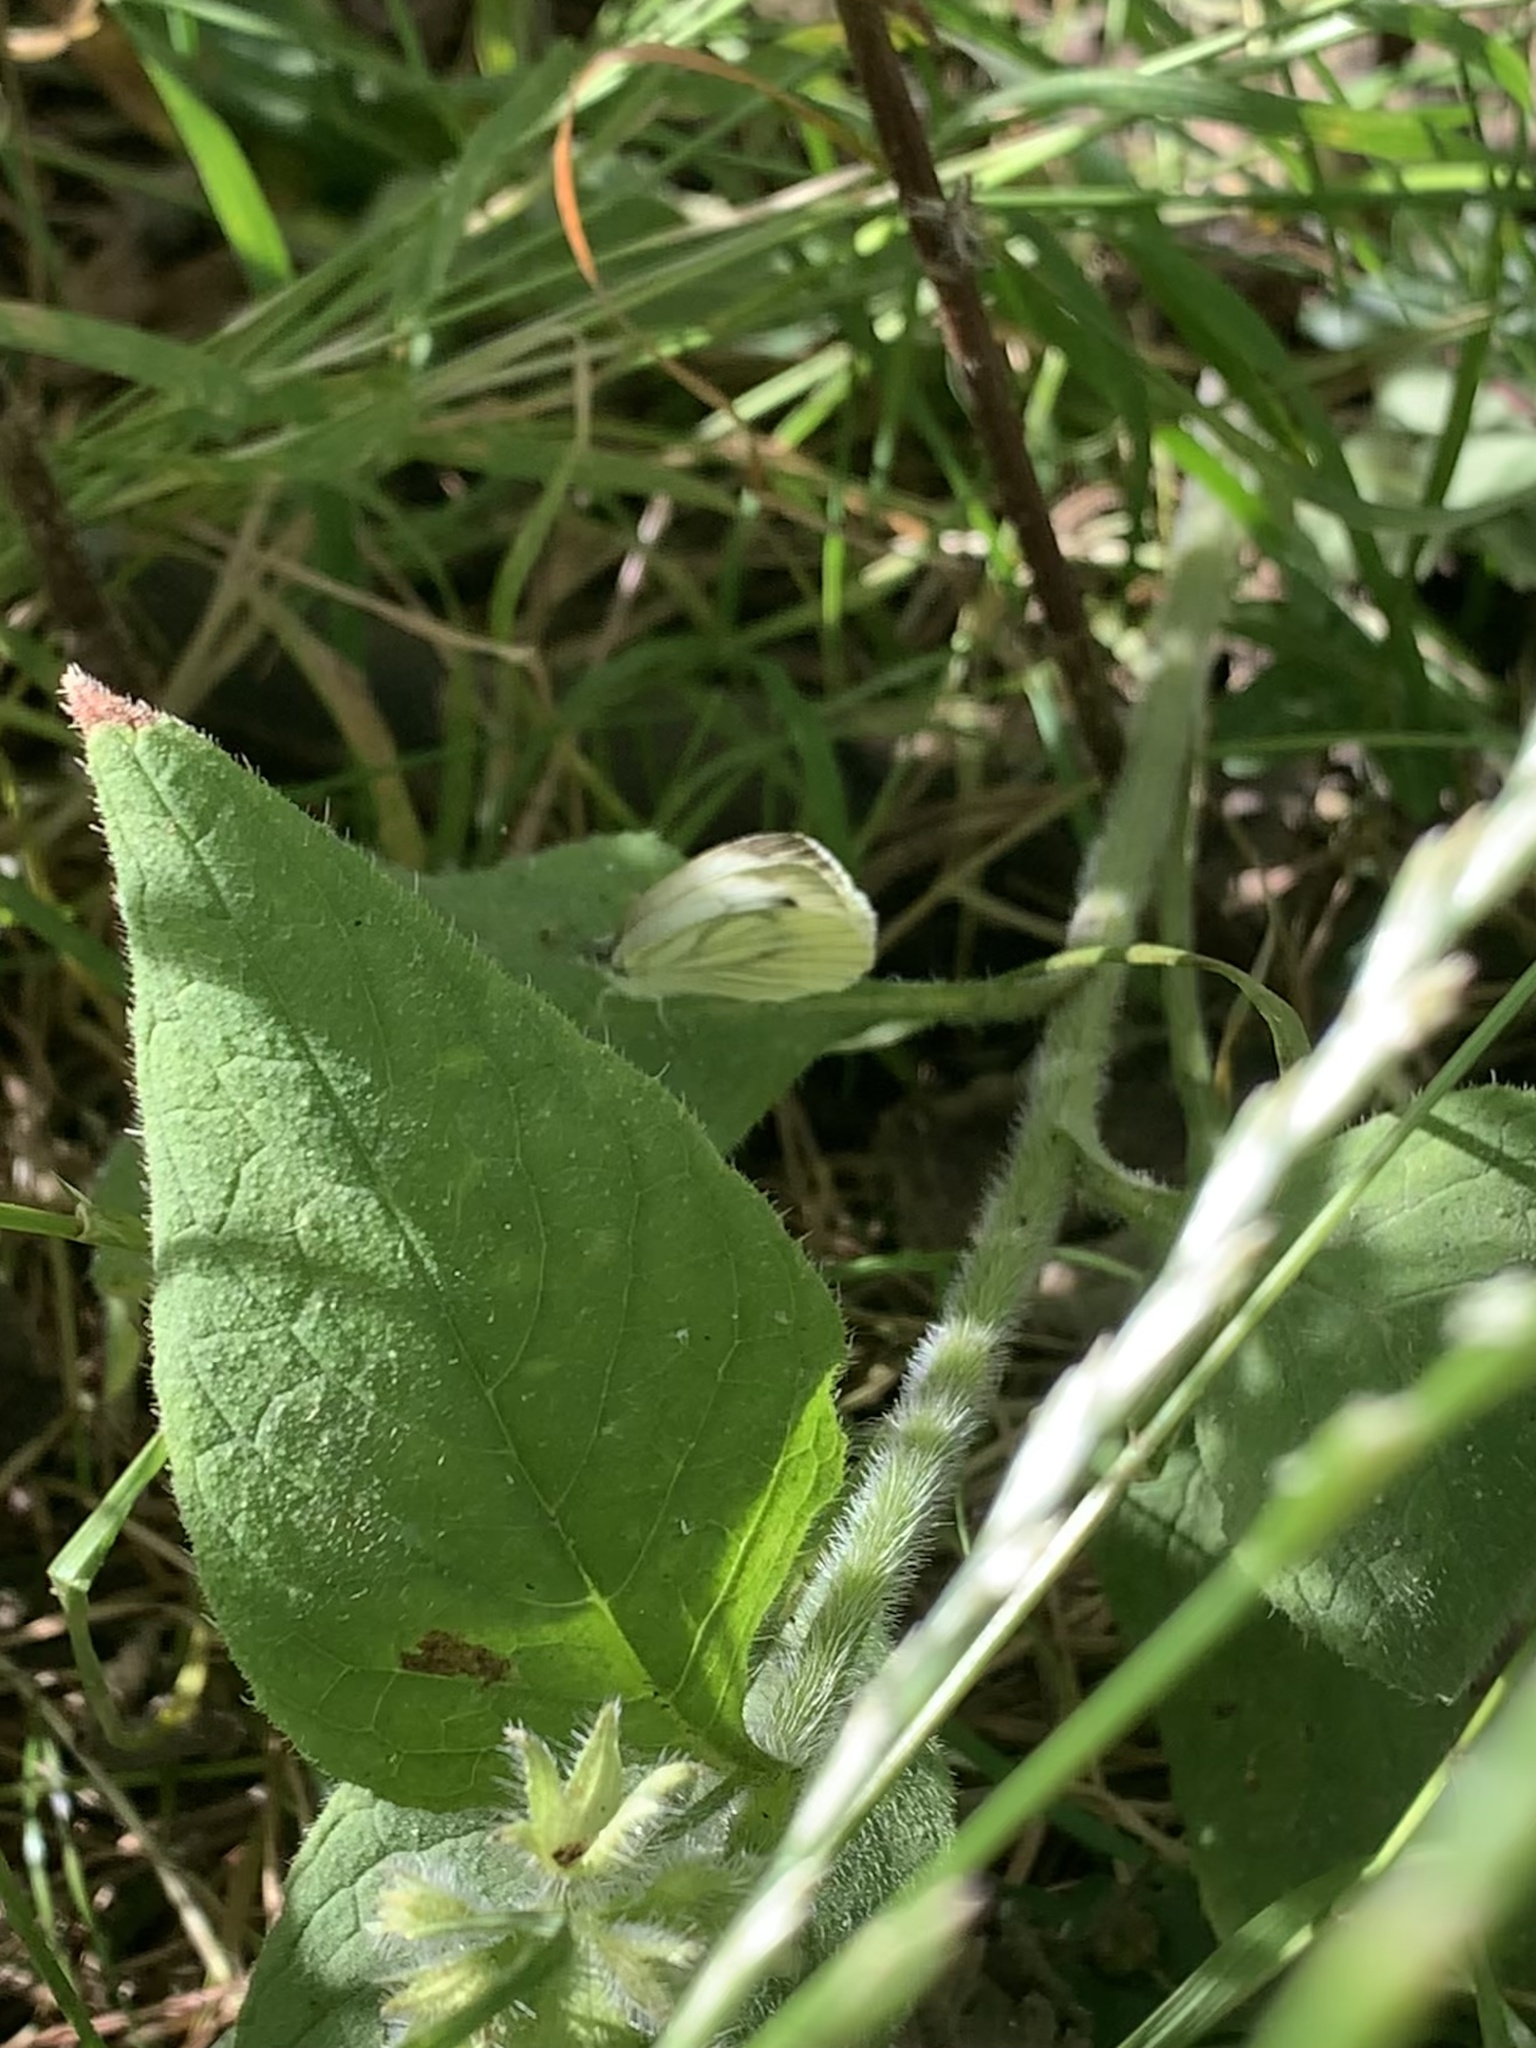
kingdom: Animalia
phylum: Arthropoda
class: Insecta
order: Lepidoptera
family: Pieridae
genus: Pieris
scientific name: Pieris napi
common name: Green-veined white
